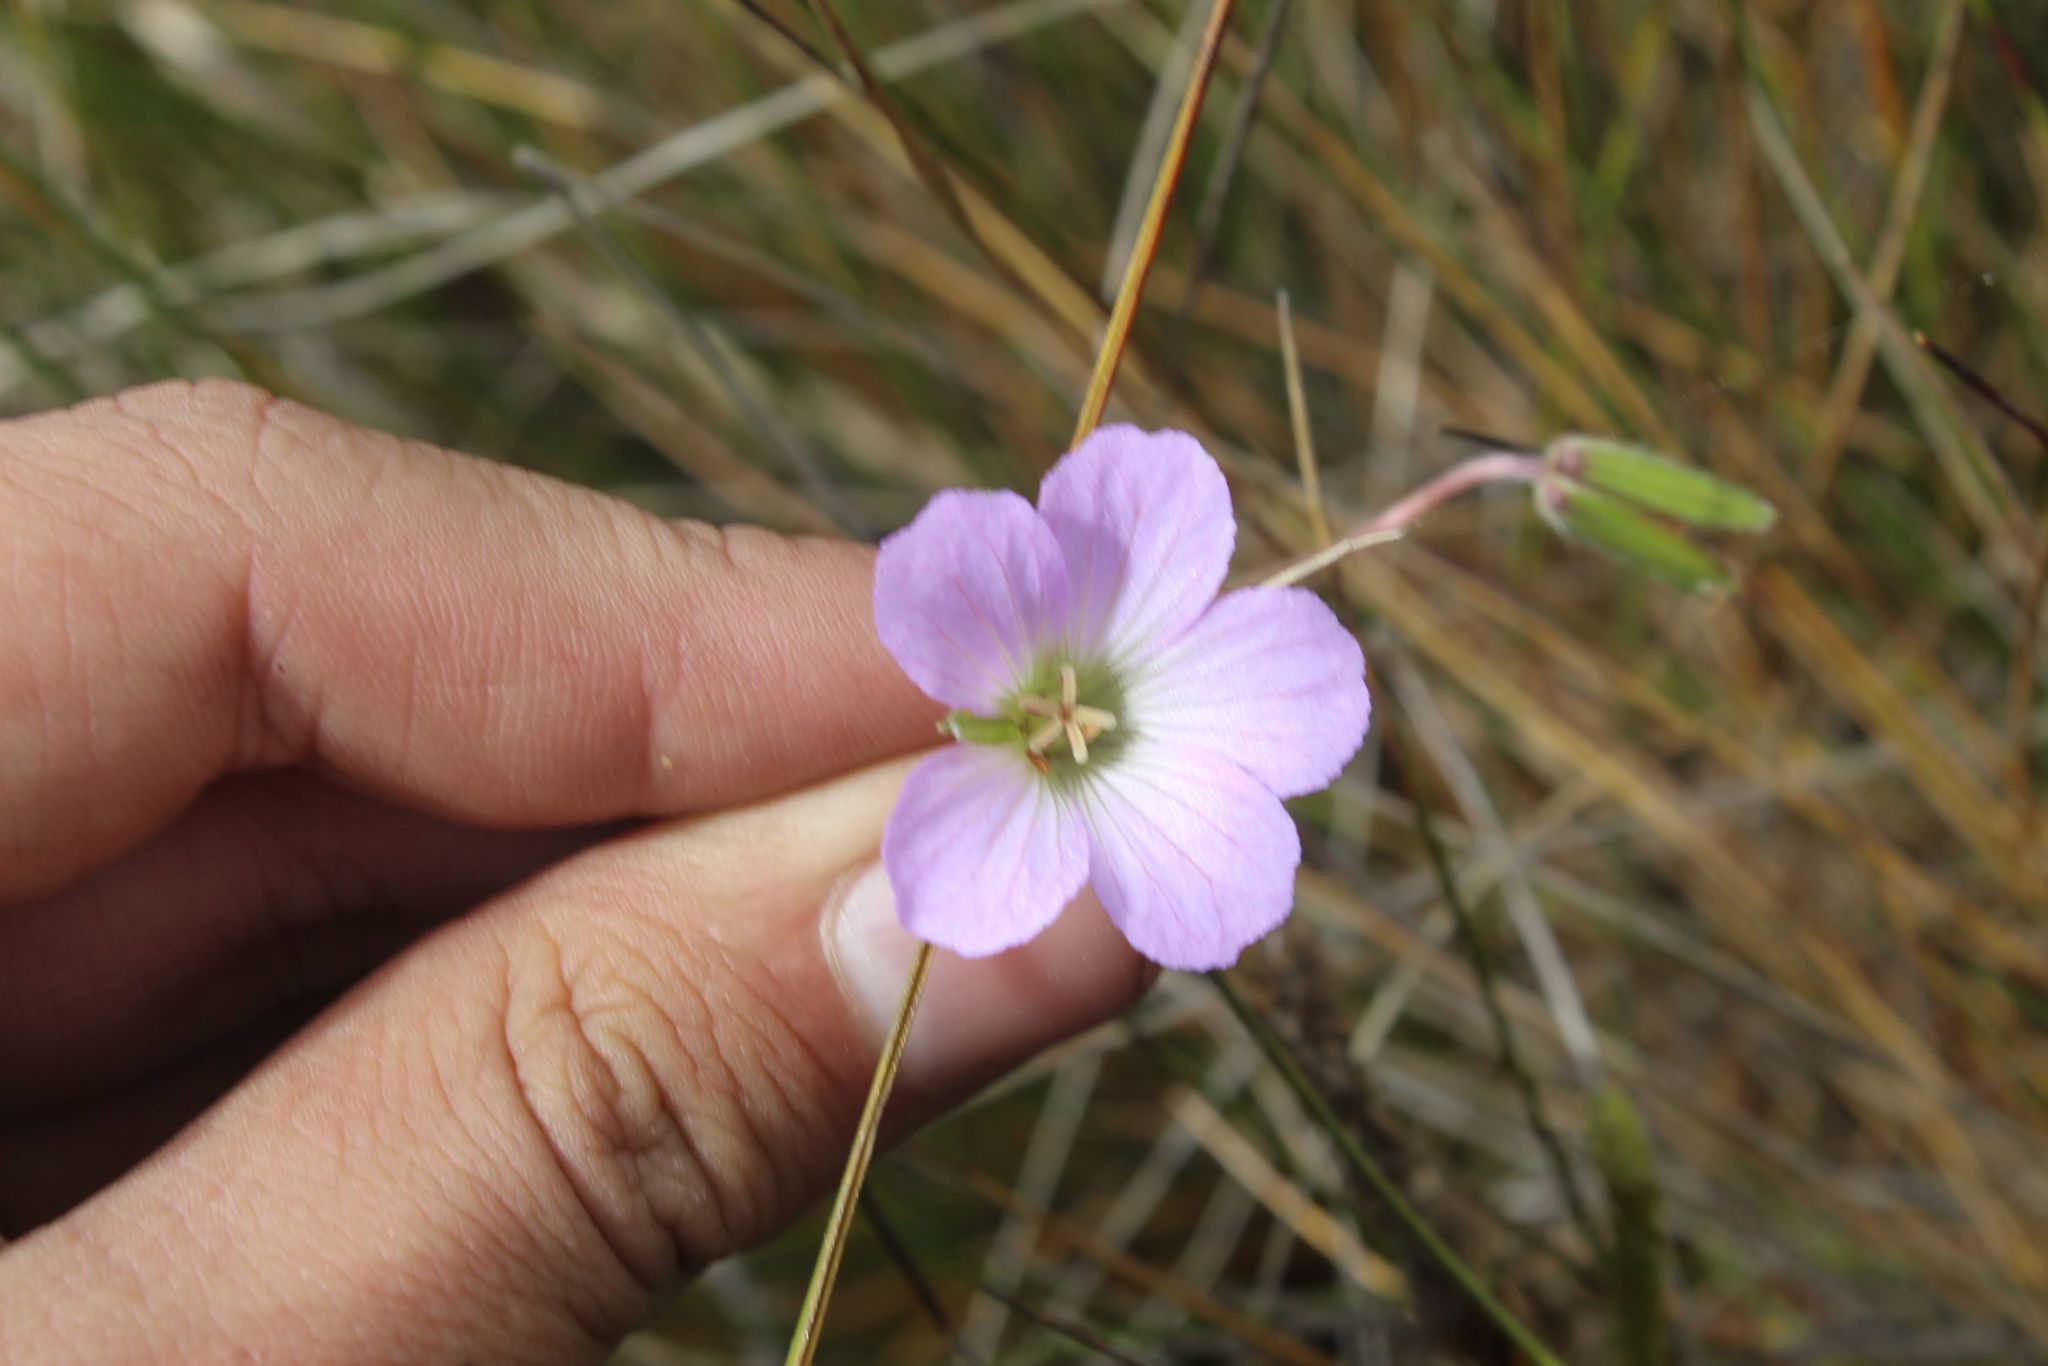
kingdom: Plantae
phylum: Tracheophyta
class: Magnoliopsida
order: Geraniales
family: Geraniaceae
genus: Geranium
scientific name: Geranium santanderiense
